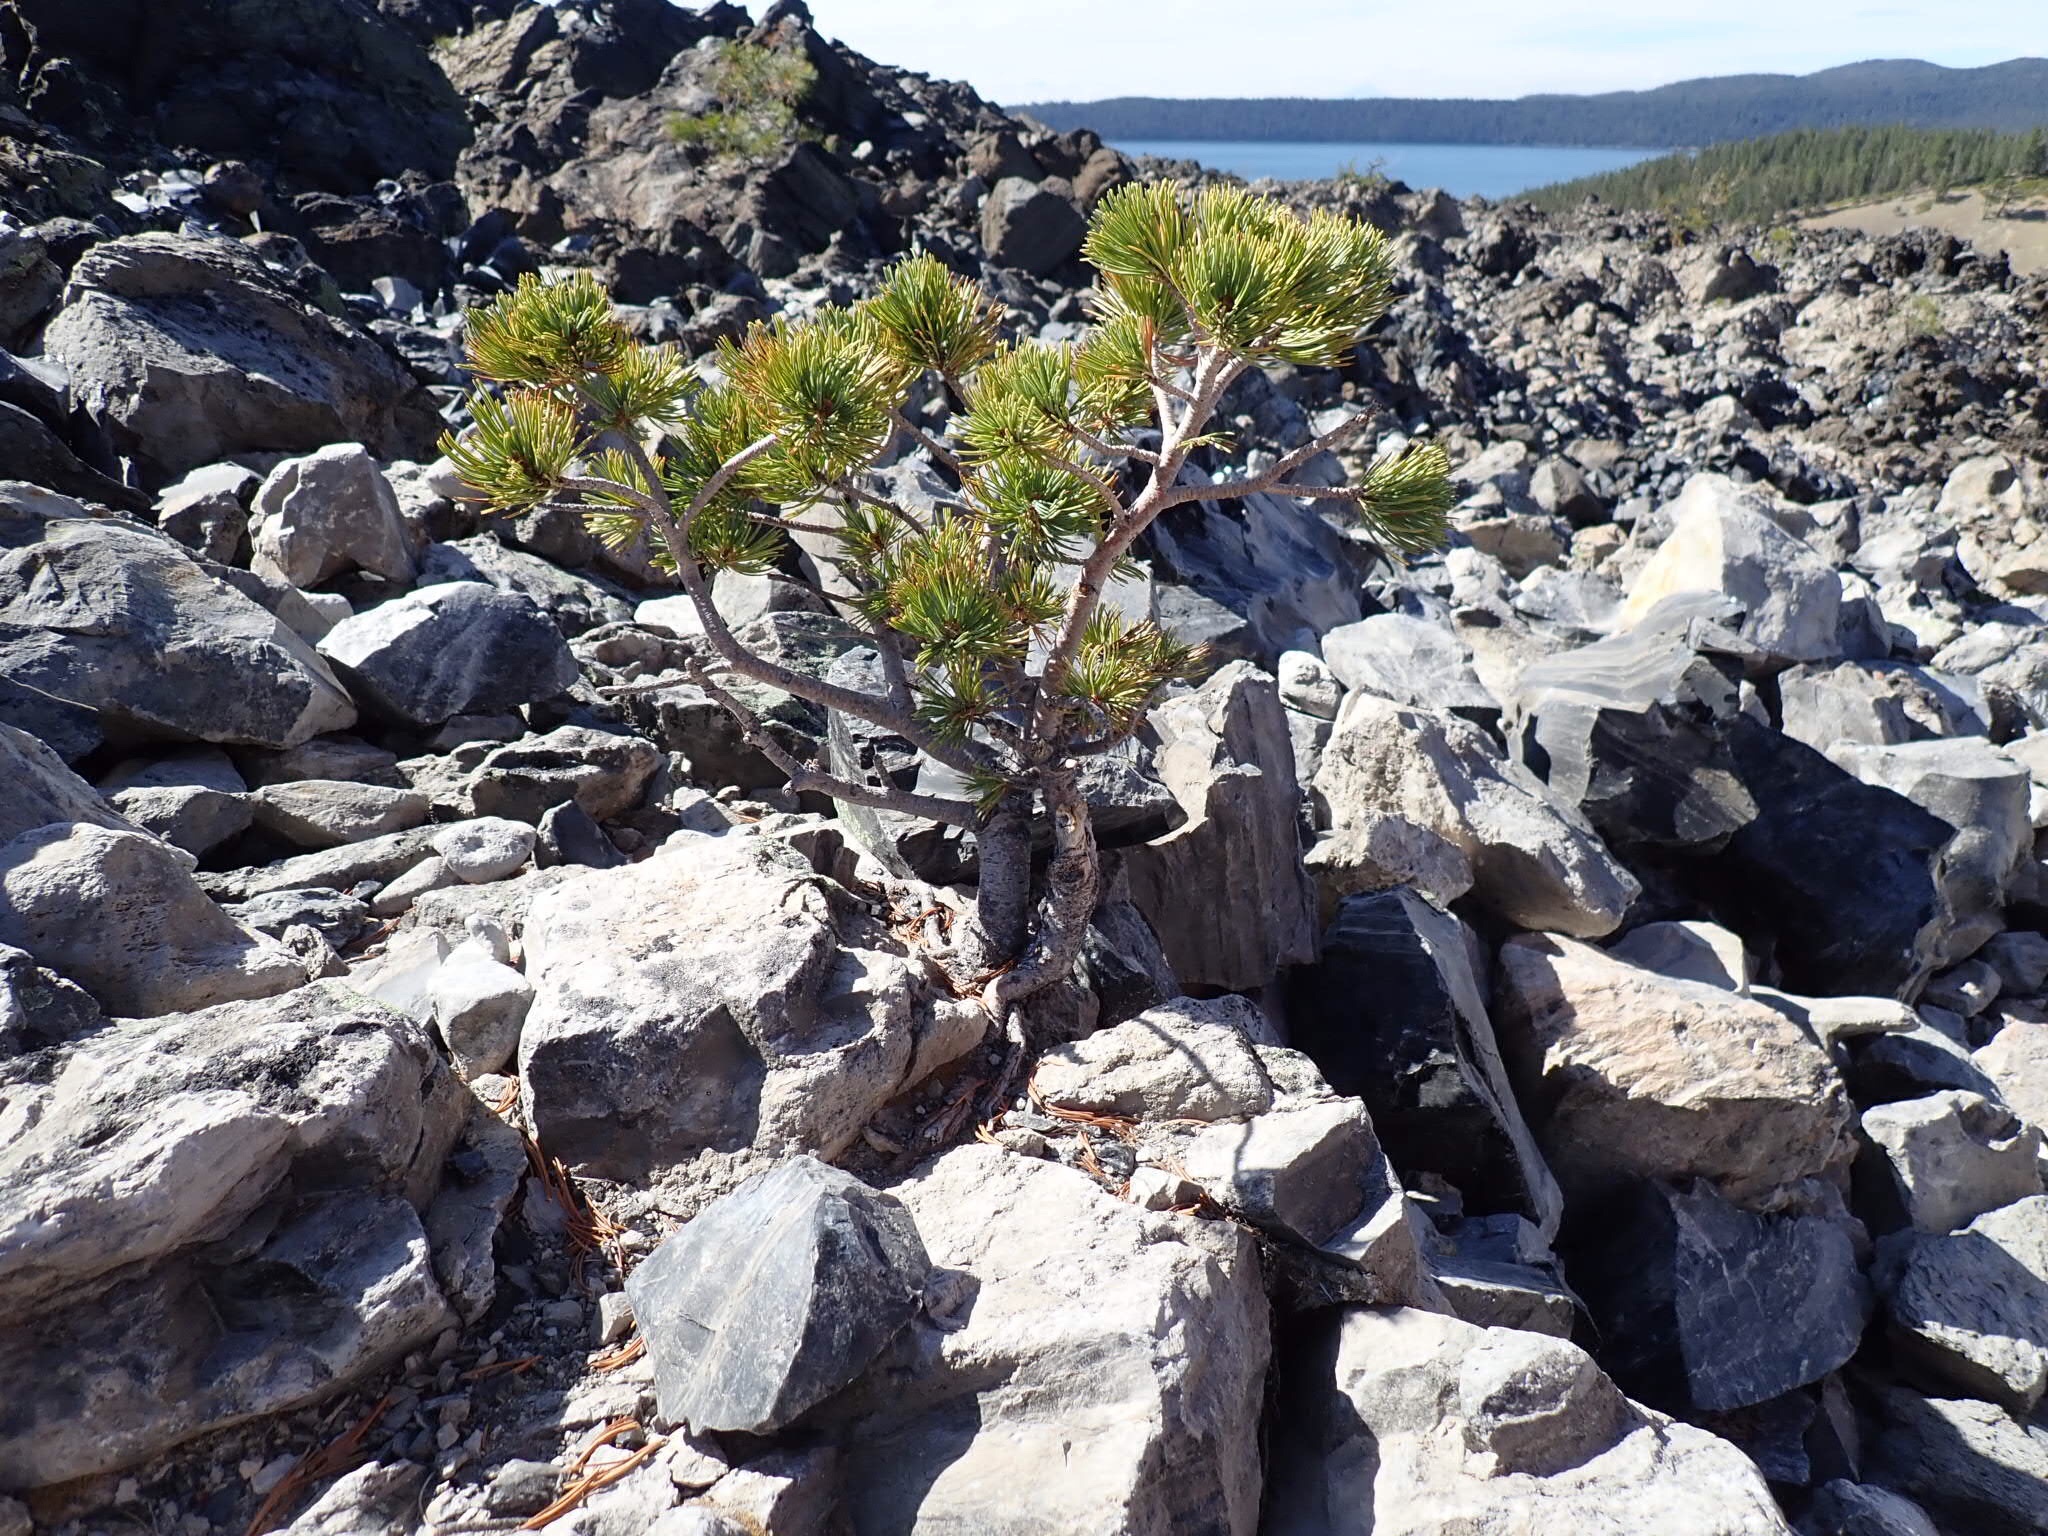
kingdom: Plantae
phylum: Tracheophyta
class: Pinopsida
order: Pinales
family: Pinaceae
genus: Pinus
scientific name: Pinus albicaulis
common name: Whitebark pine
